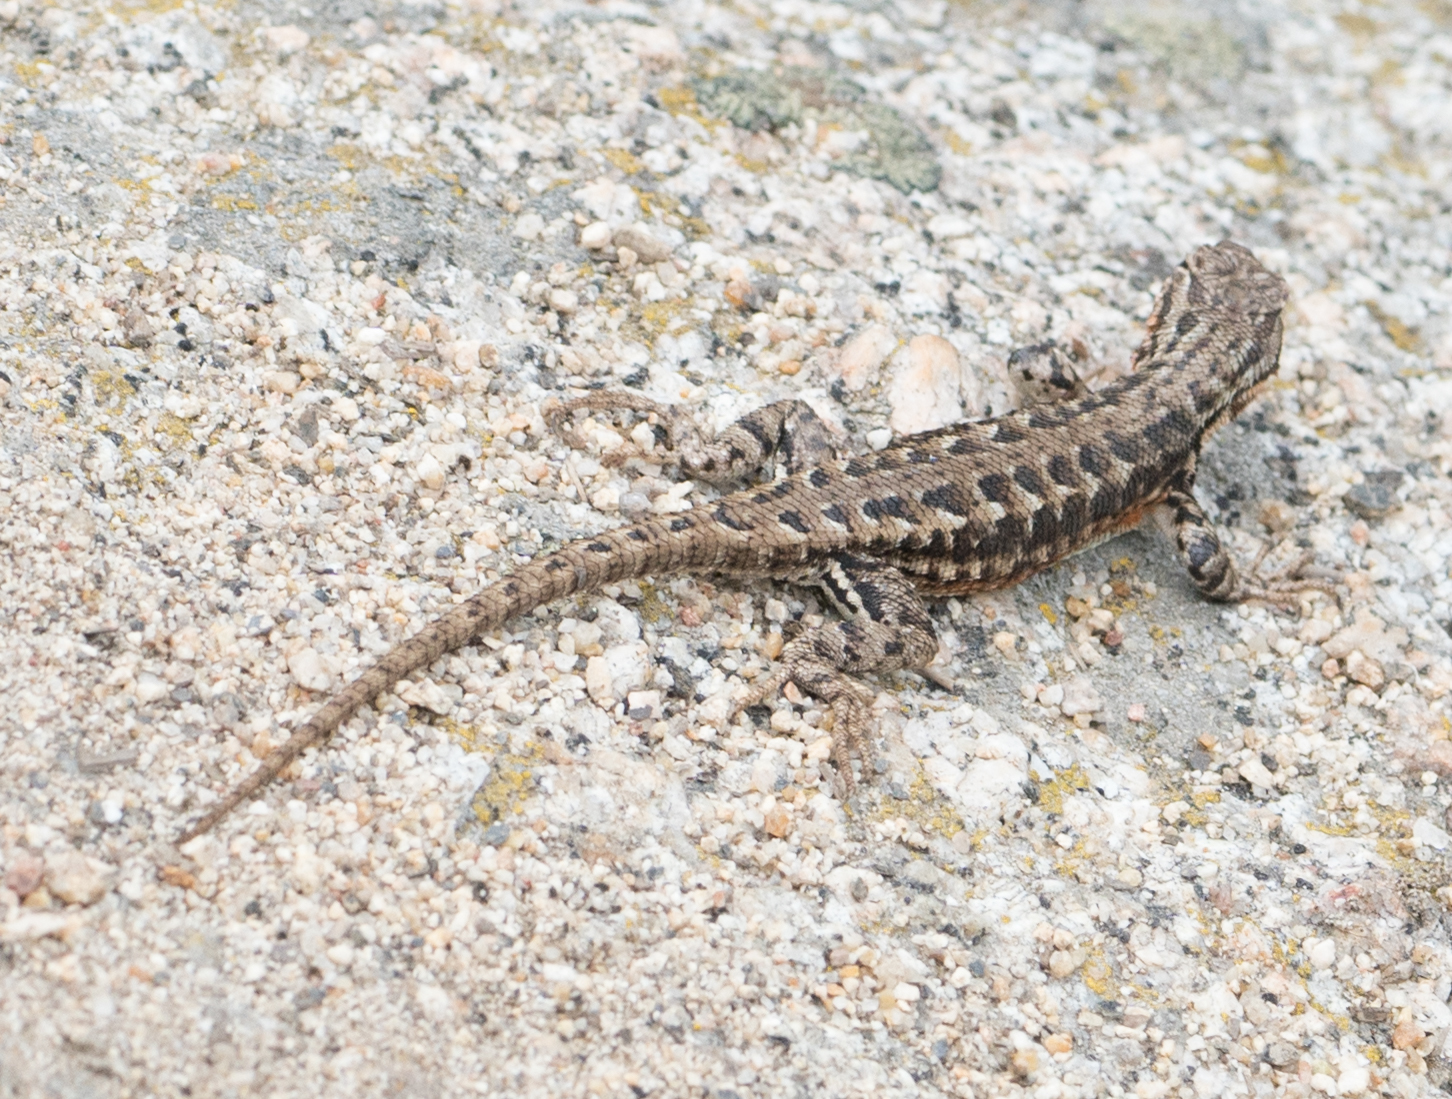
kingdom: Animalia
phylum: Chordata
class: Squamata
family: Phrynosomatidae
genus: Sceloporus
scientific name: Sceloporus graciosus
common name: Sagebrush lizard
